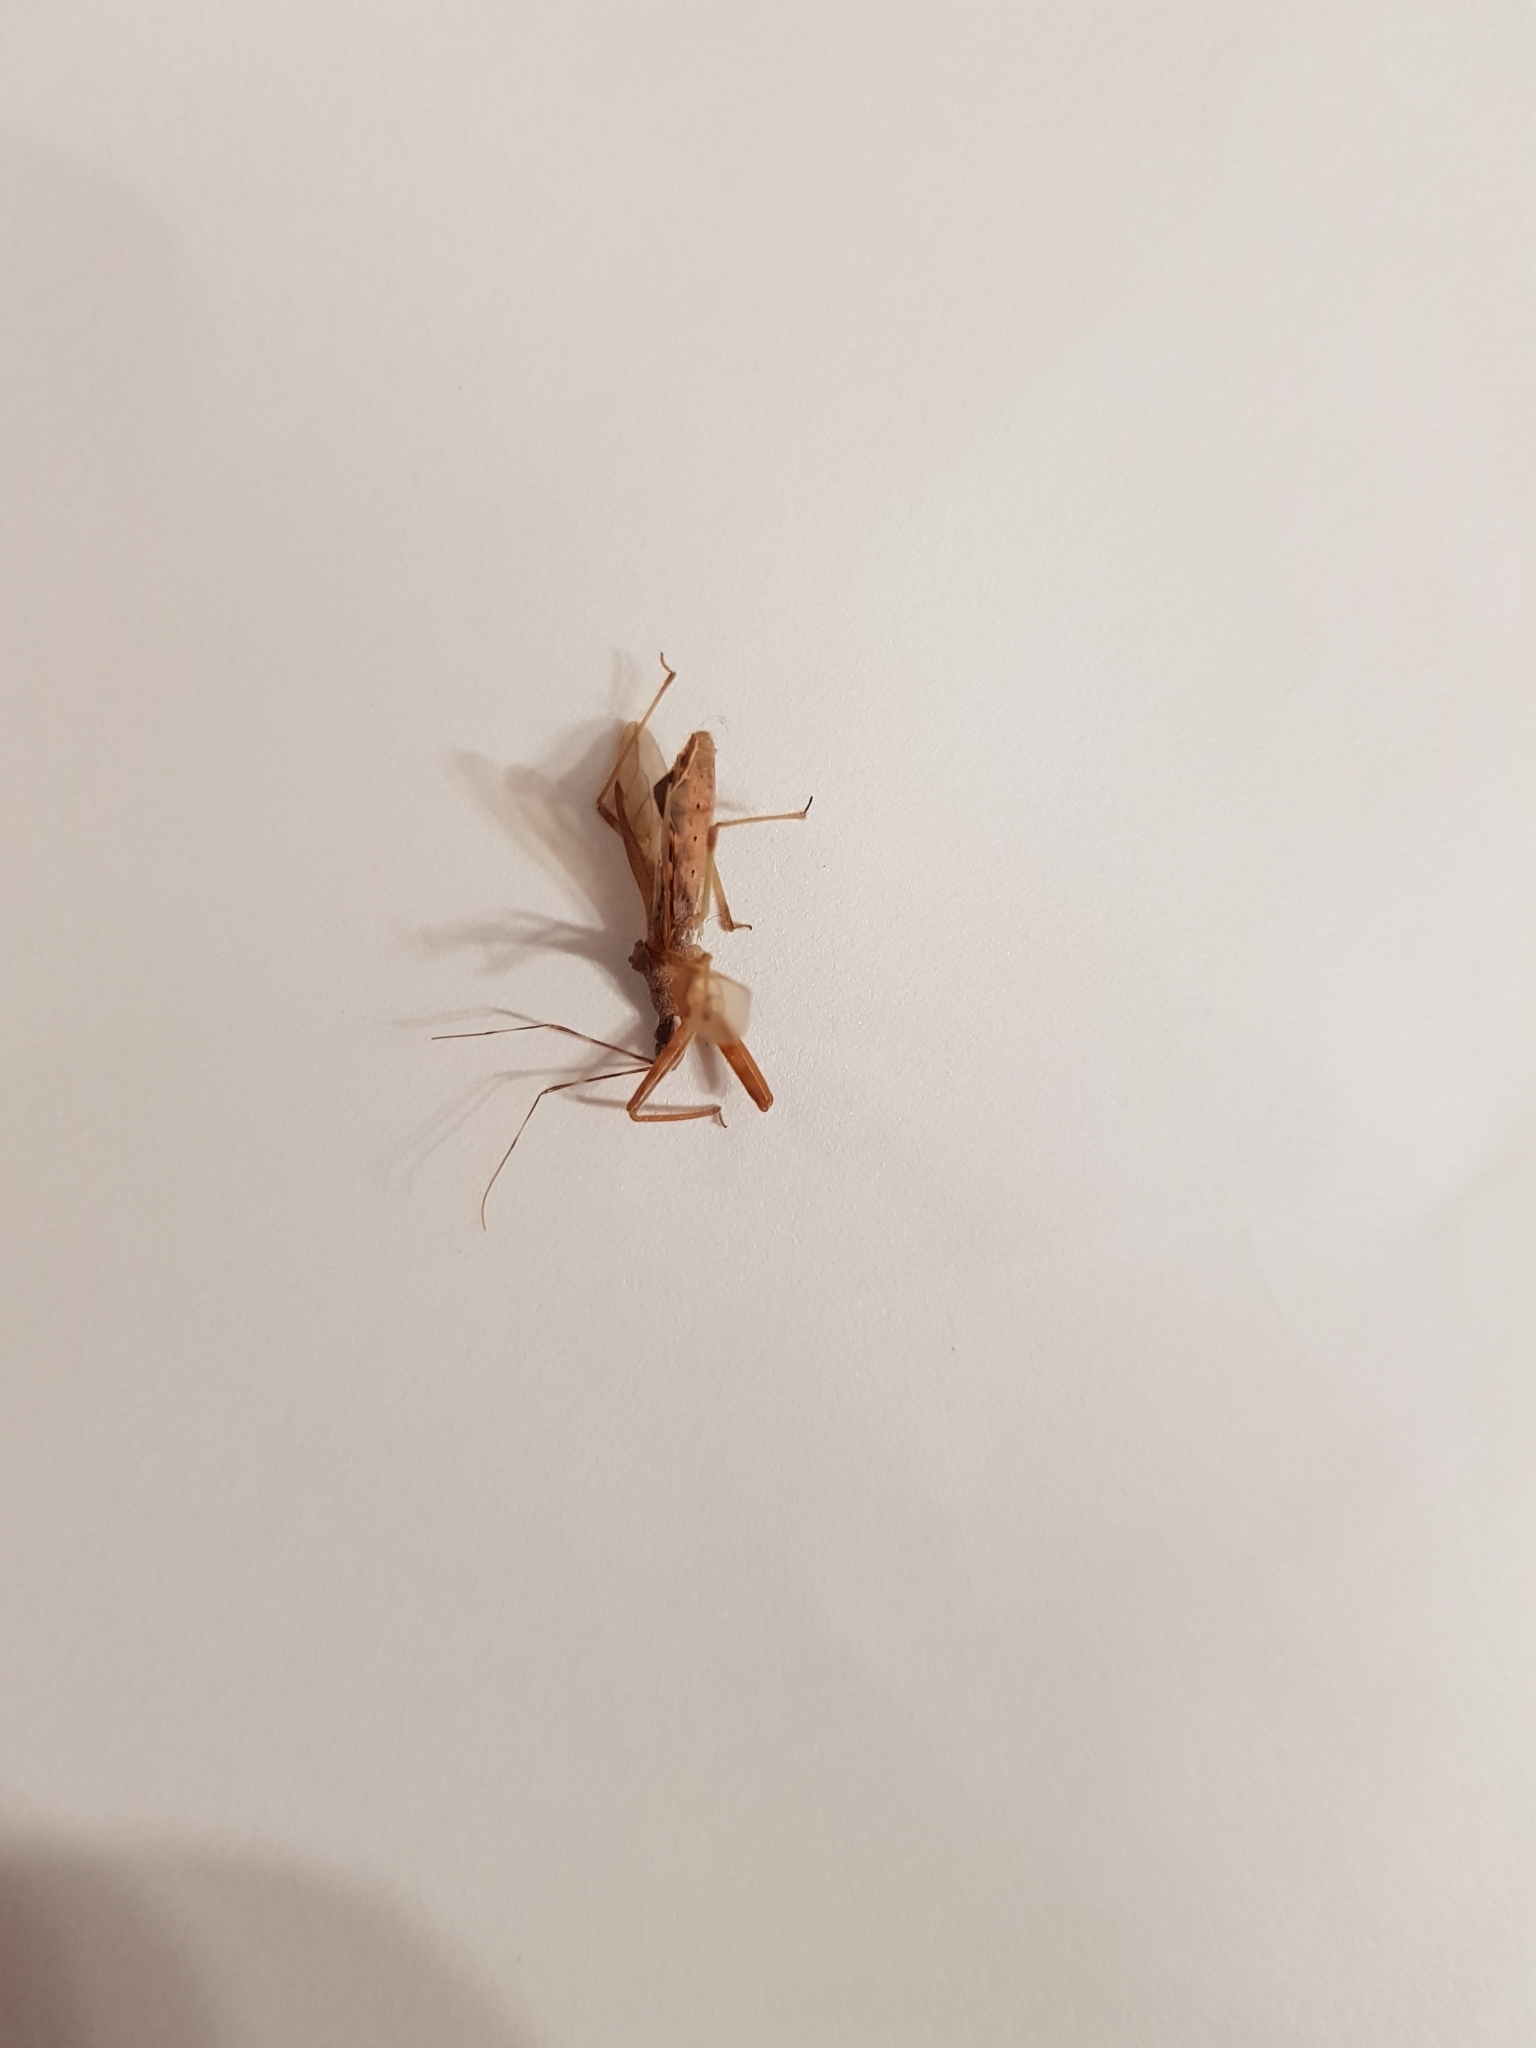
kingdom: Animalia
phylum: Arthropoda
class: Insecta
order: Hemiptera
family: Reduviidae
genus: Nagusta
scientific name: Nagusta goedelii
